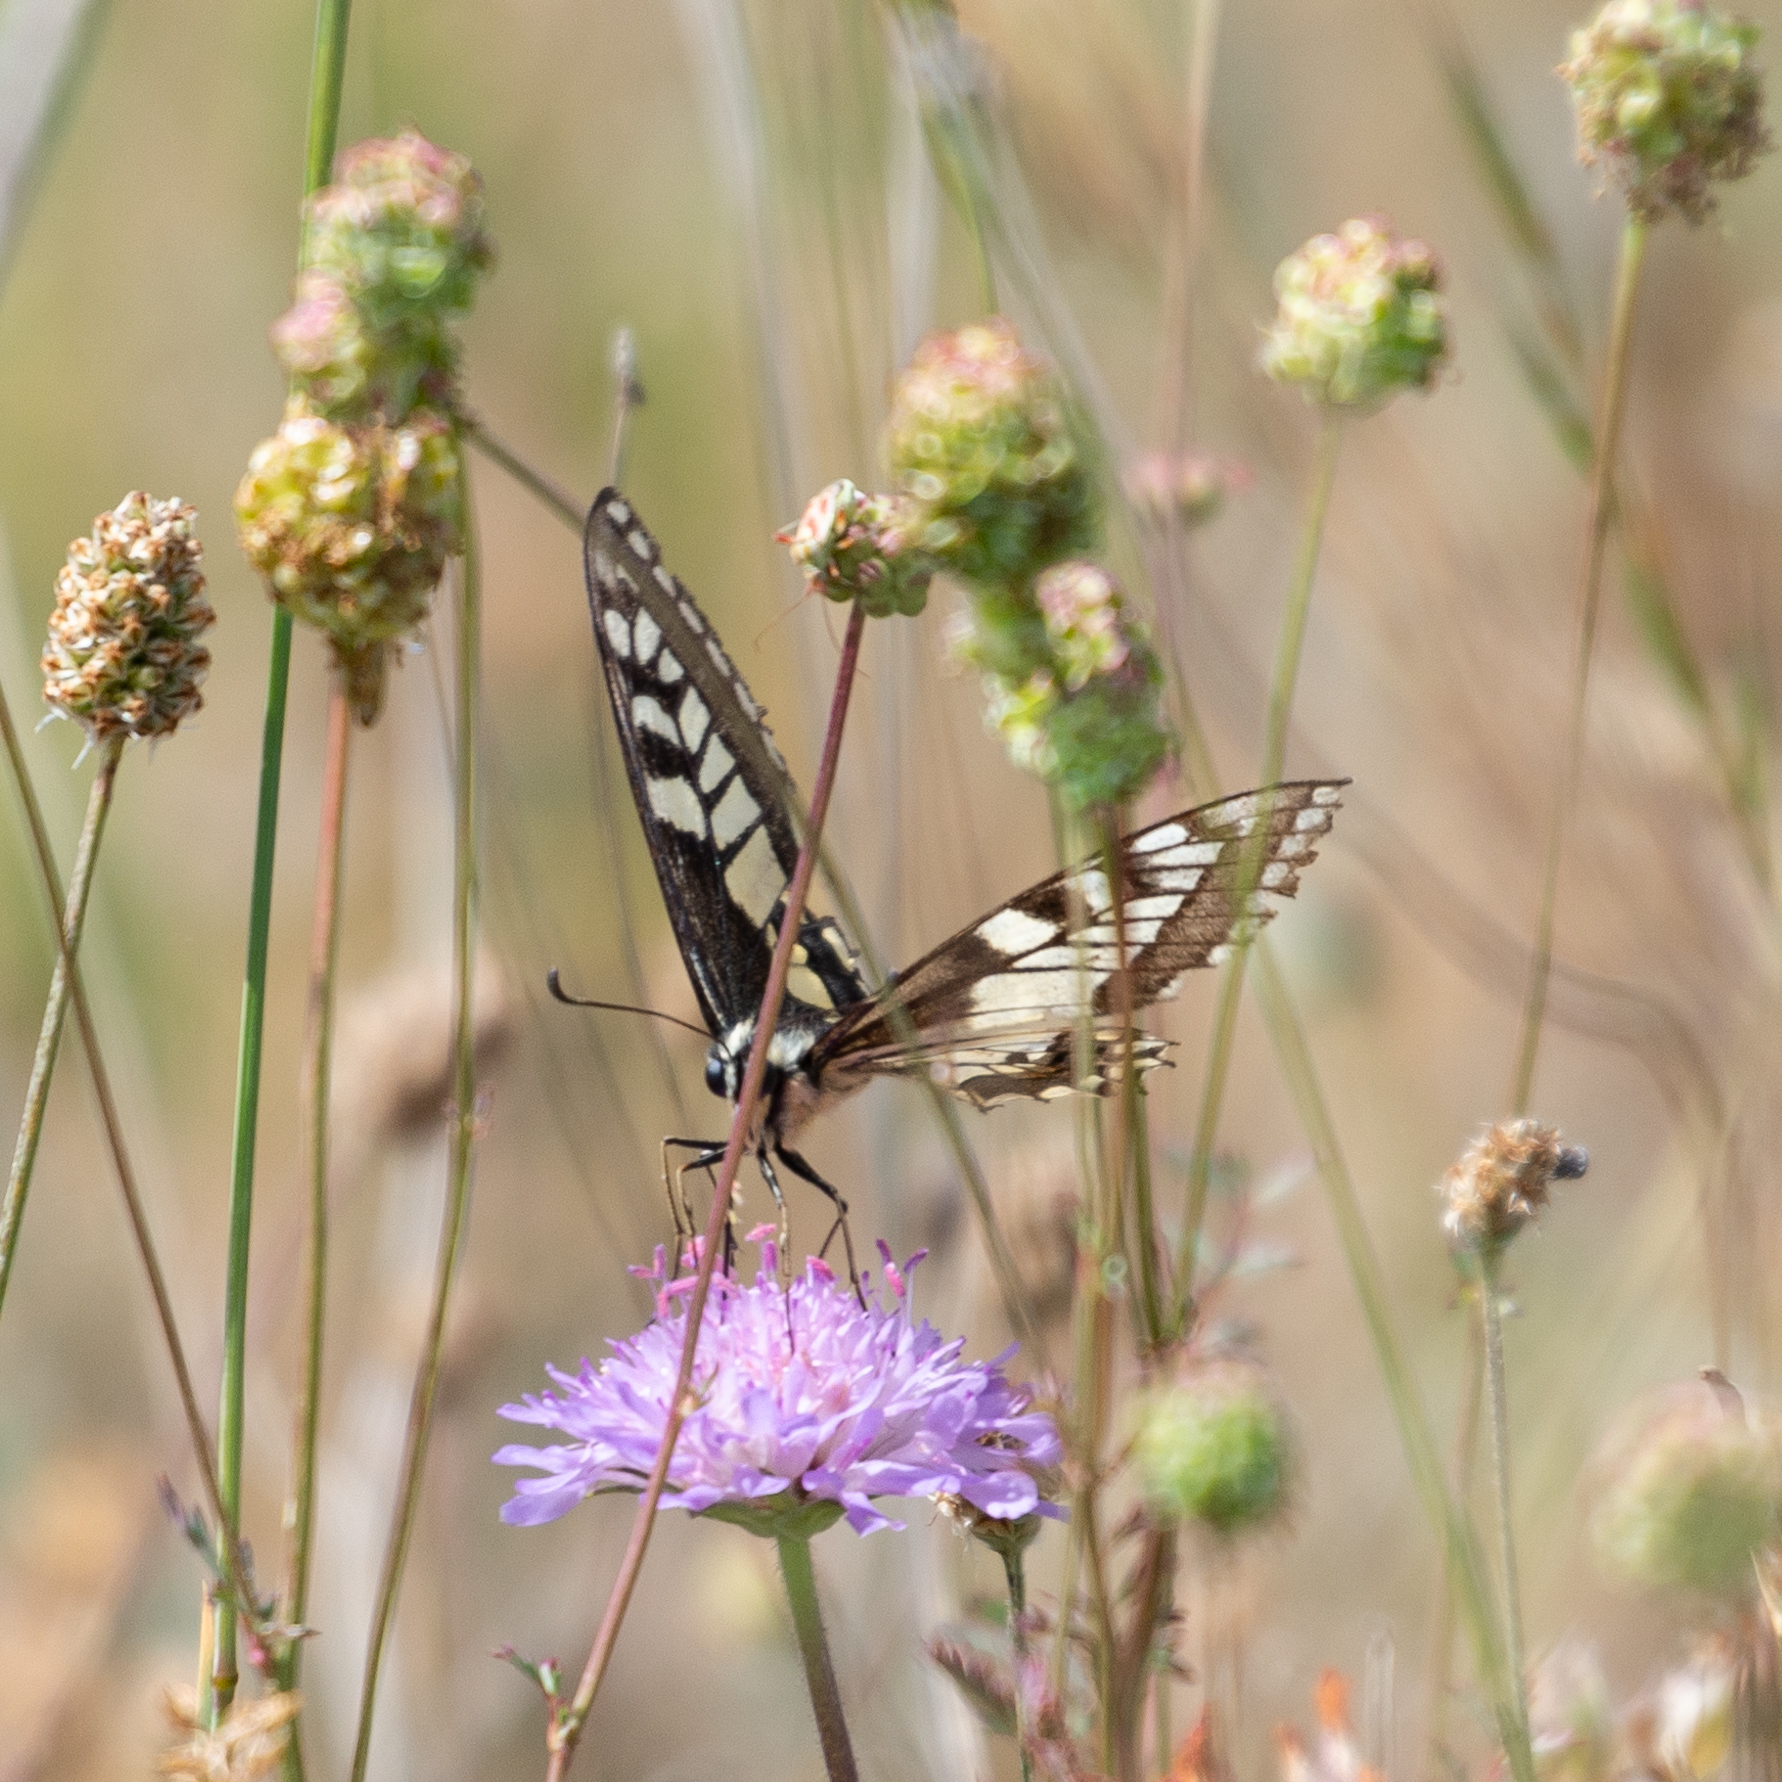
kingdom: Animalia
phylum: Arthropoda
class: Insecta
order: Lepidoptera
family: Papilionidae
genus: Papilio
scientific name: Papilio machaon
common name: Swallowtail
